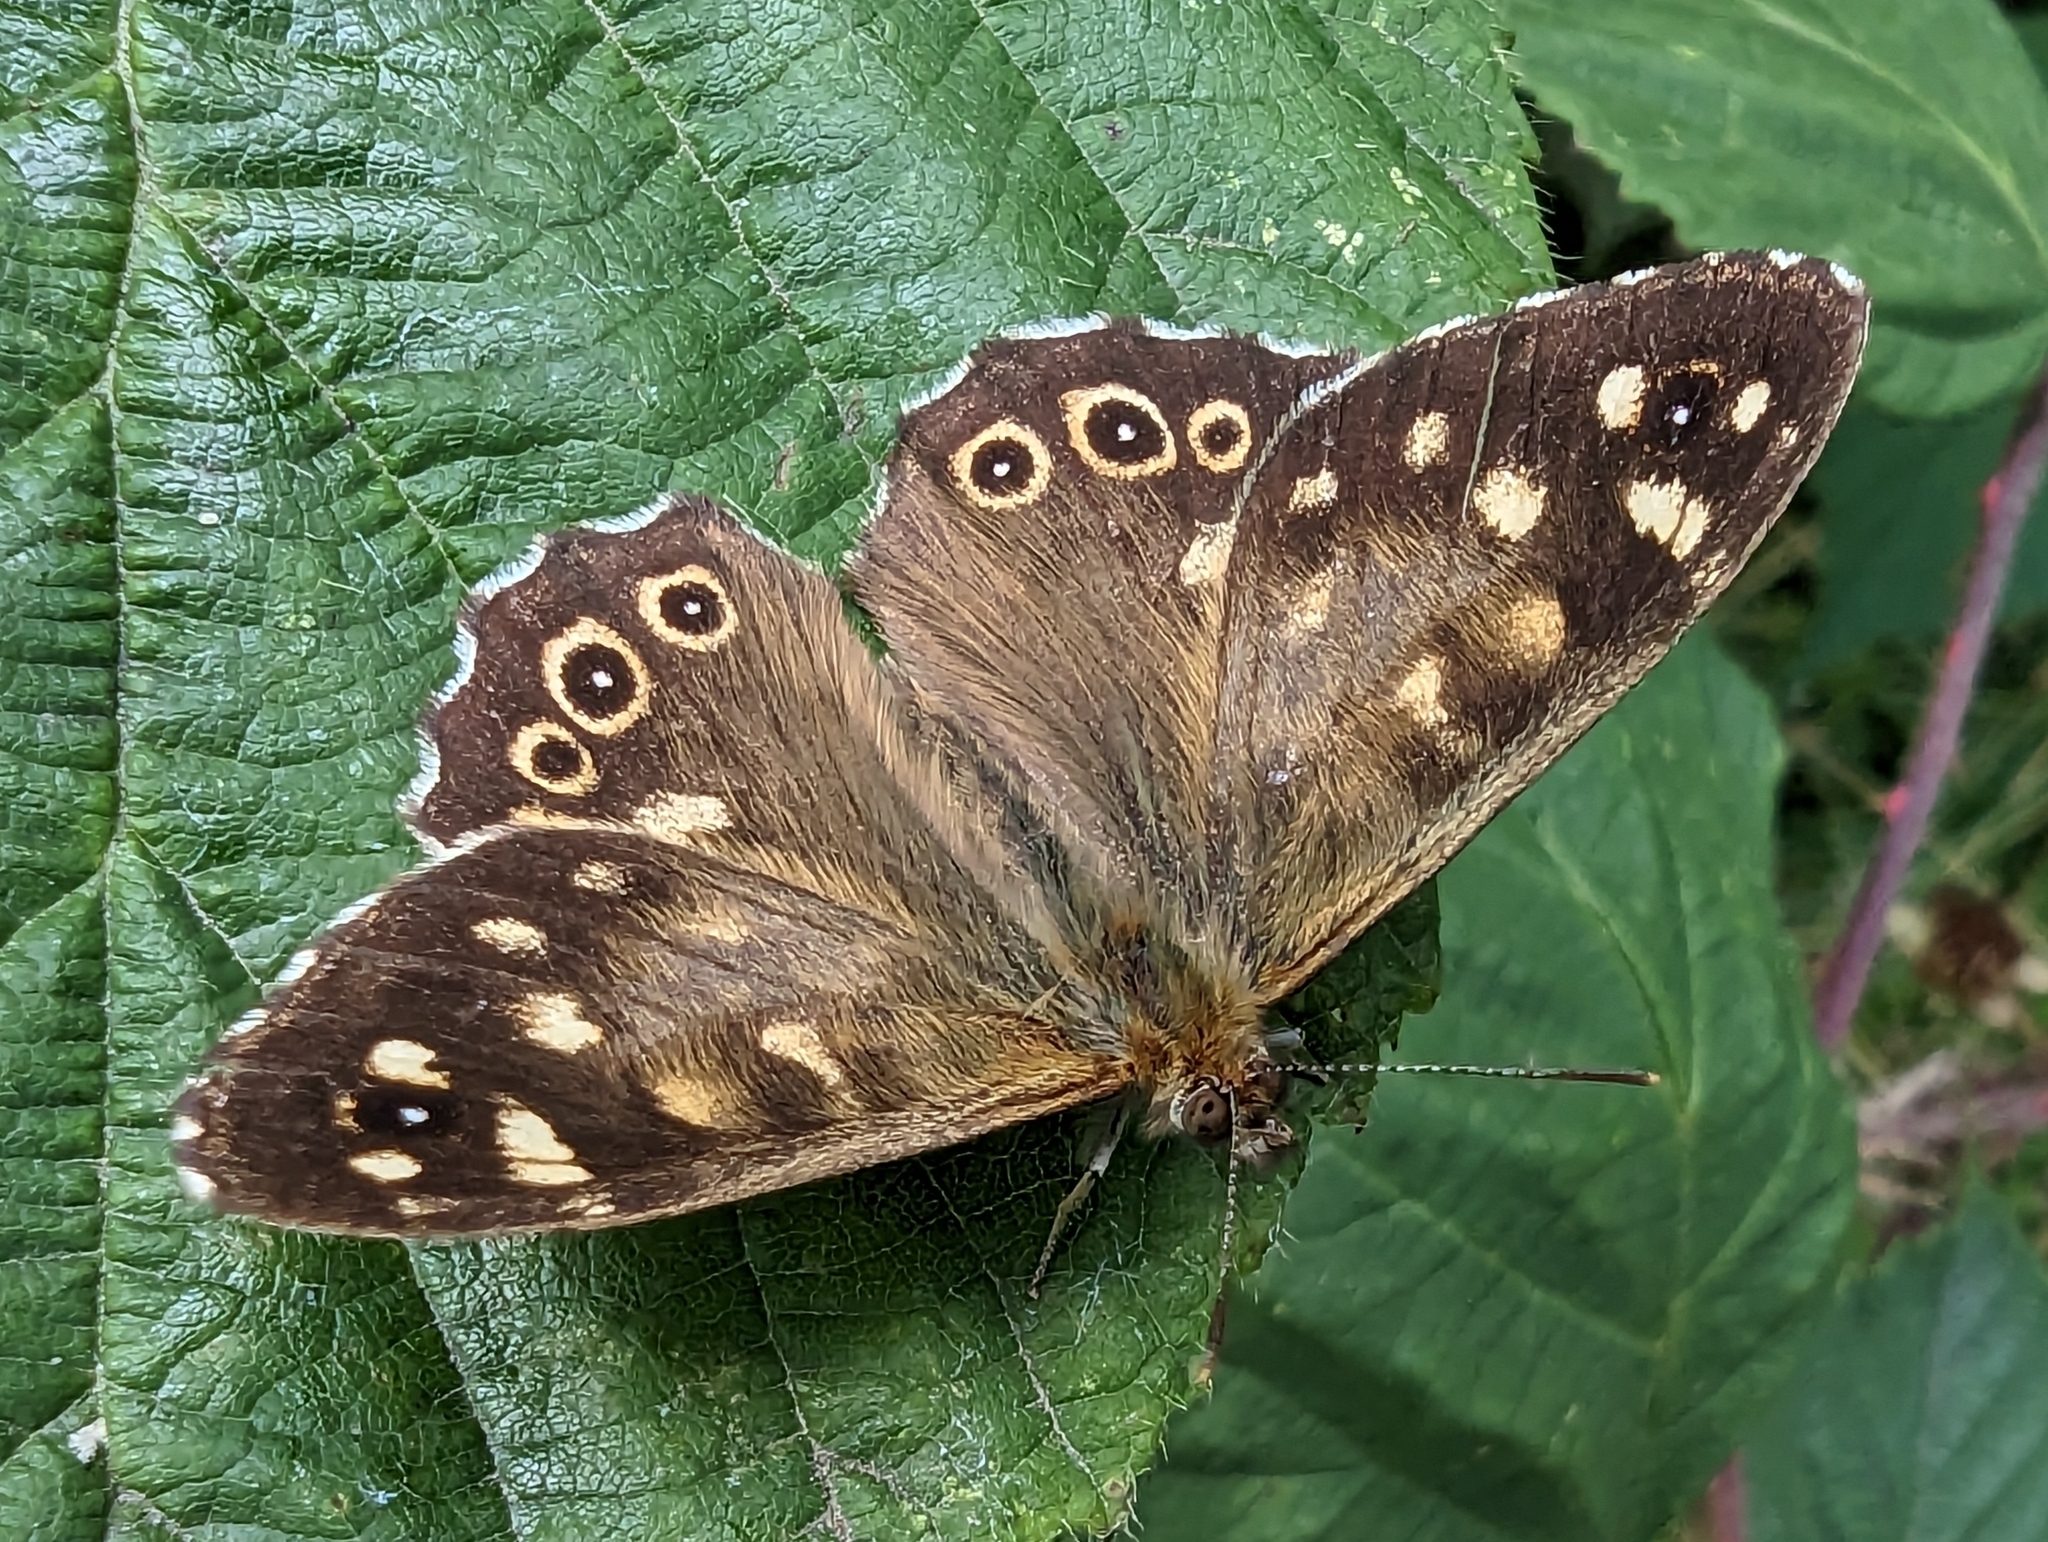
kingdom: Animalia
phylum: Arthropoda
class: Insecta
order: Lepidoptera
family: Nymphalidae
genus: Pararge
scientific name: Pararge aegeria
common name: Speckled wood
